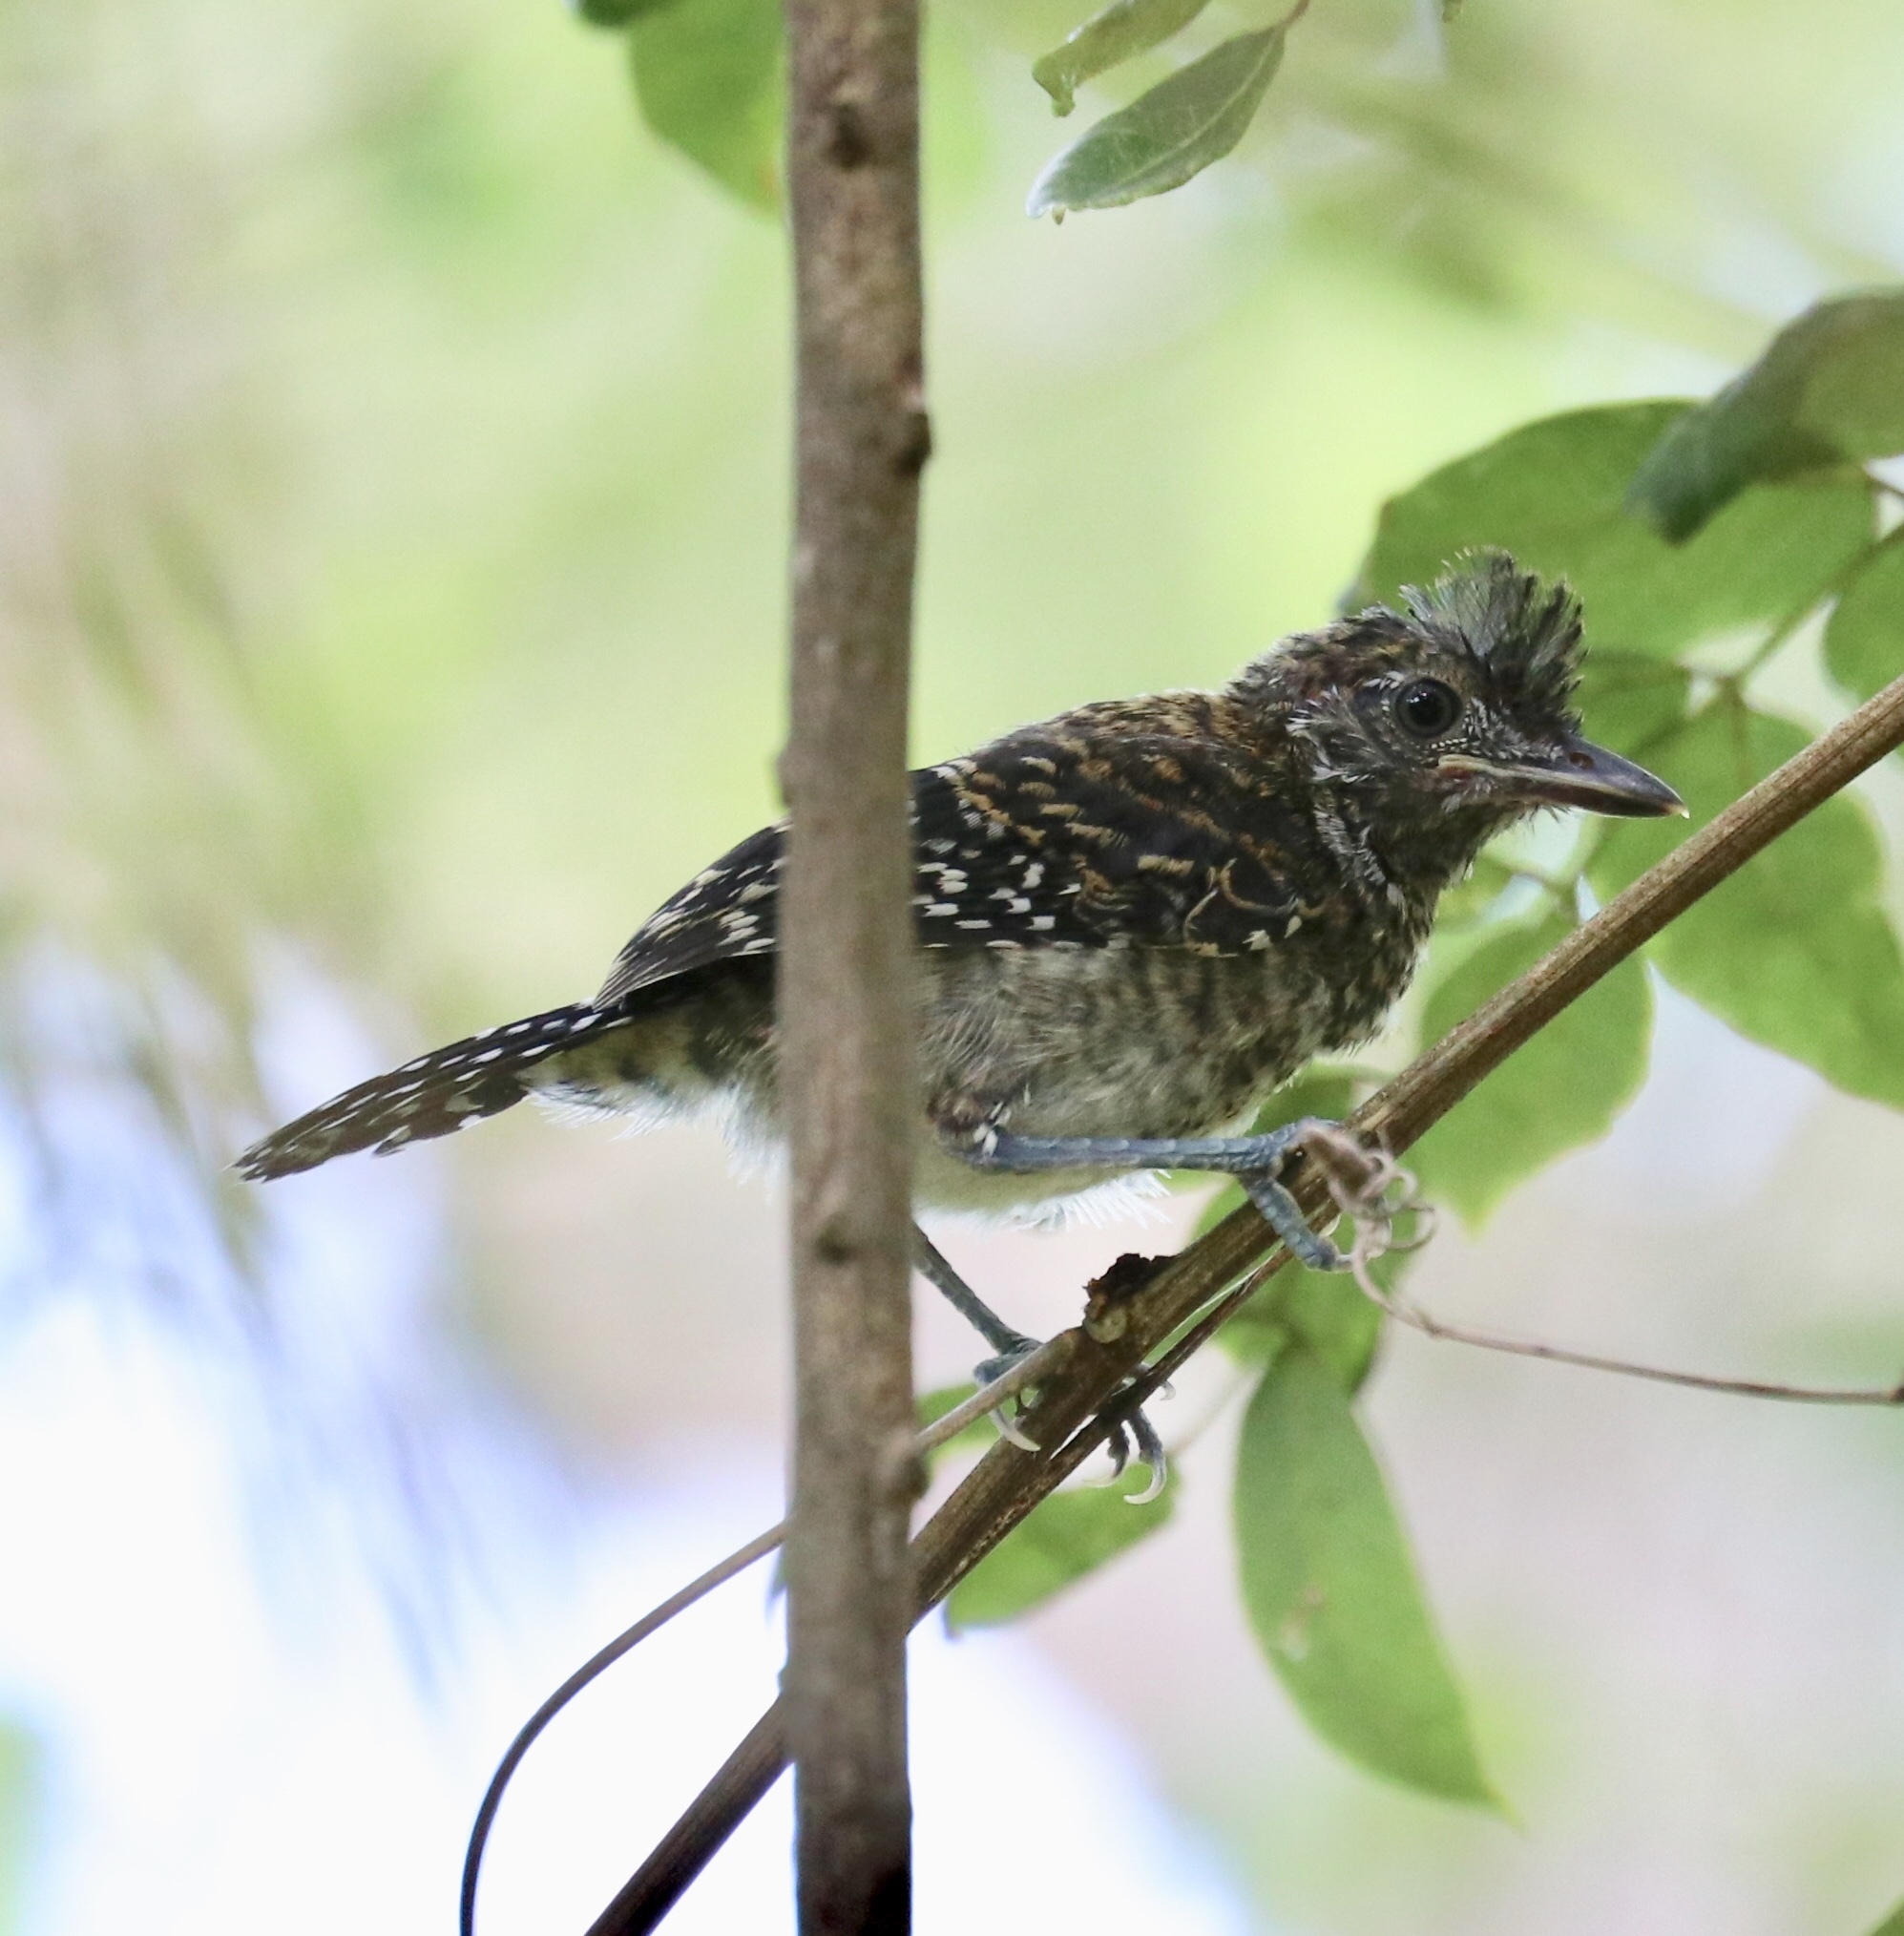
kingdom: Animalia
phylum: Chordata
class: Aves
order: Passeriformes
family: Thamnophilidae
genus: Thamnophilus
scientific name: Thamnophilus doliatus
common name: Barred antshrike
